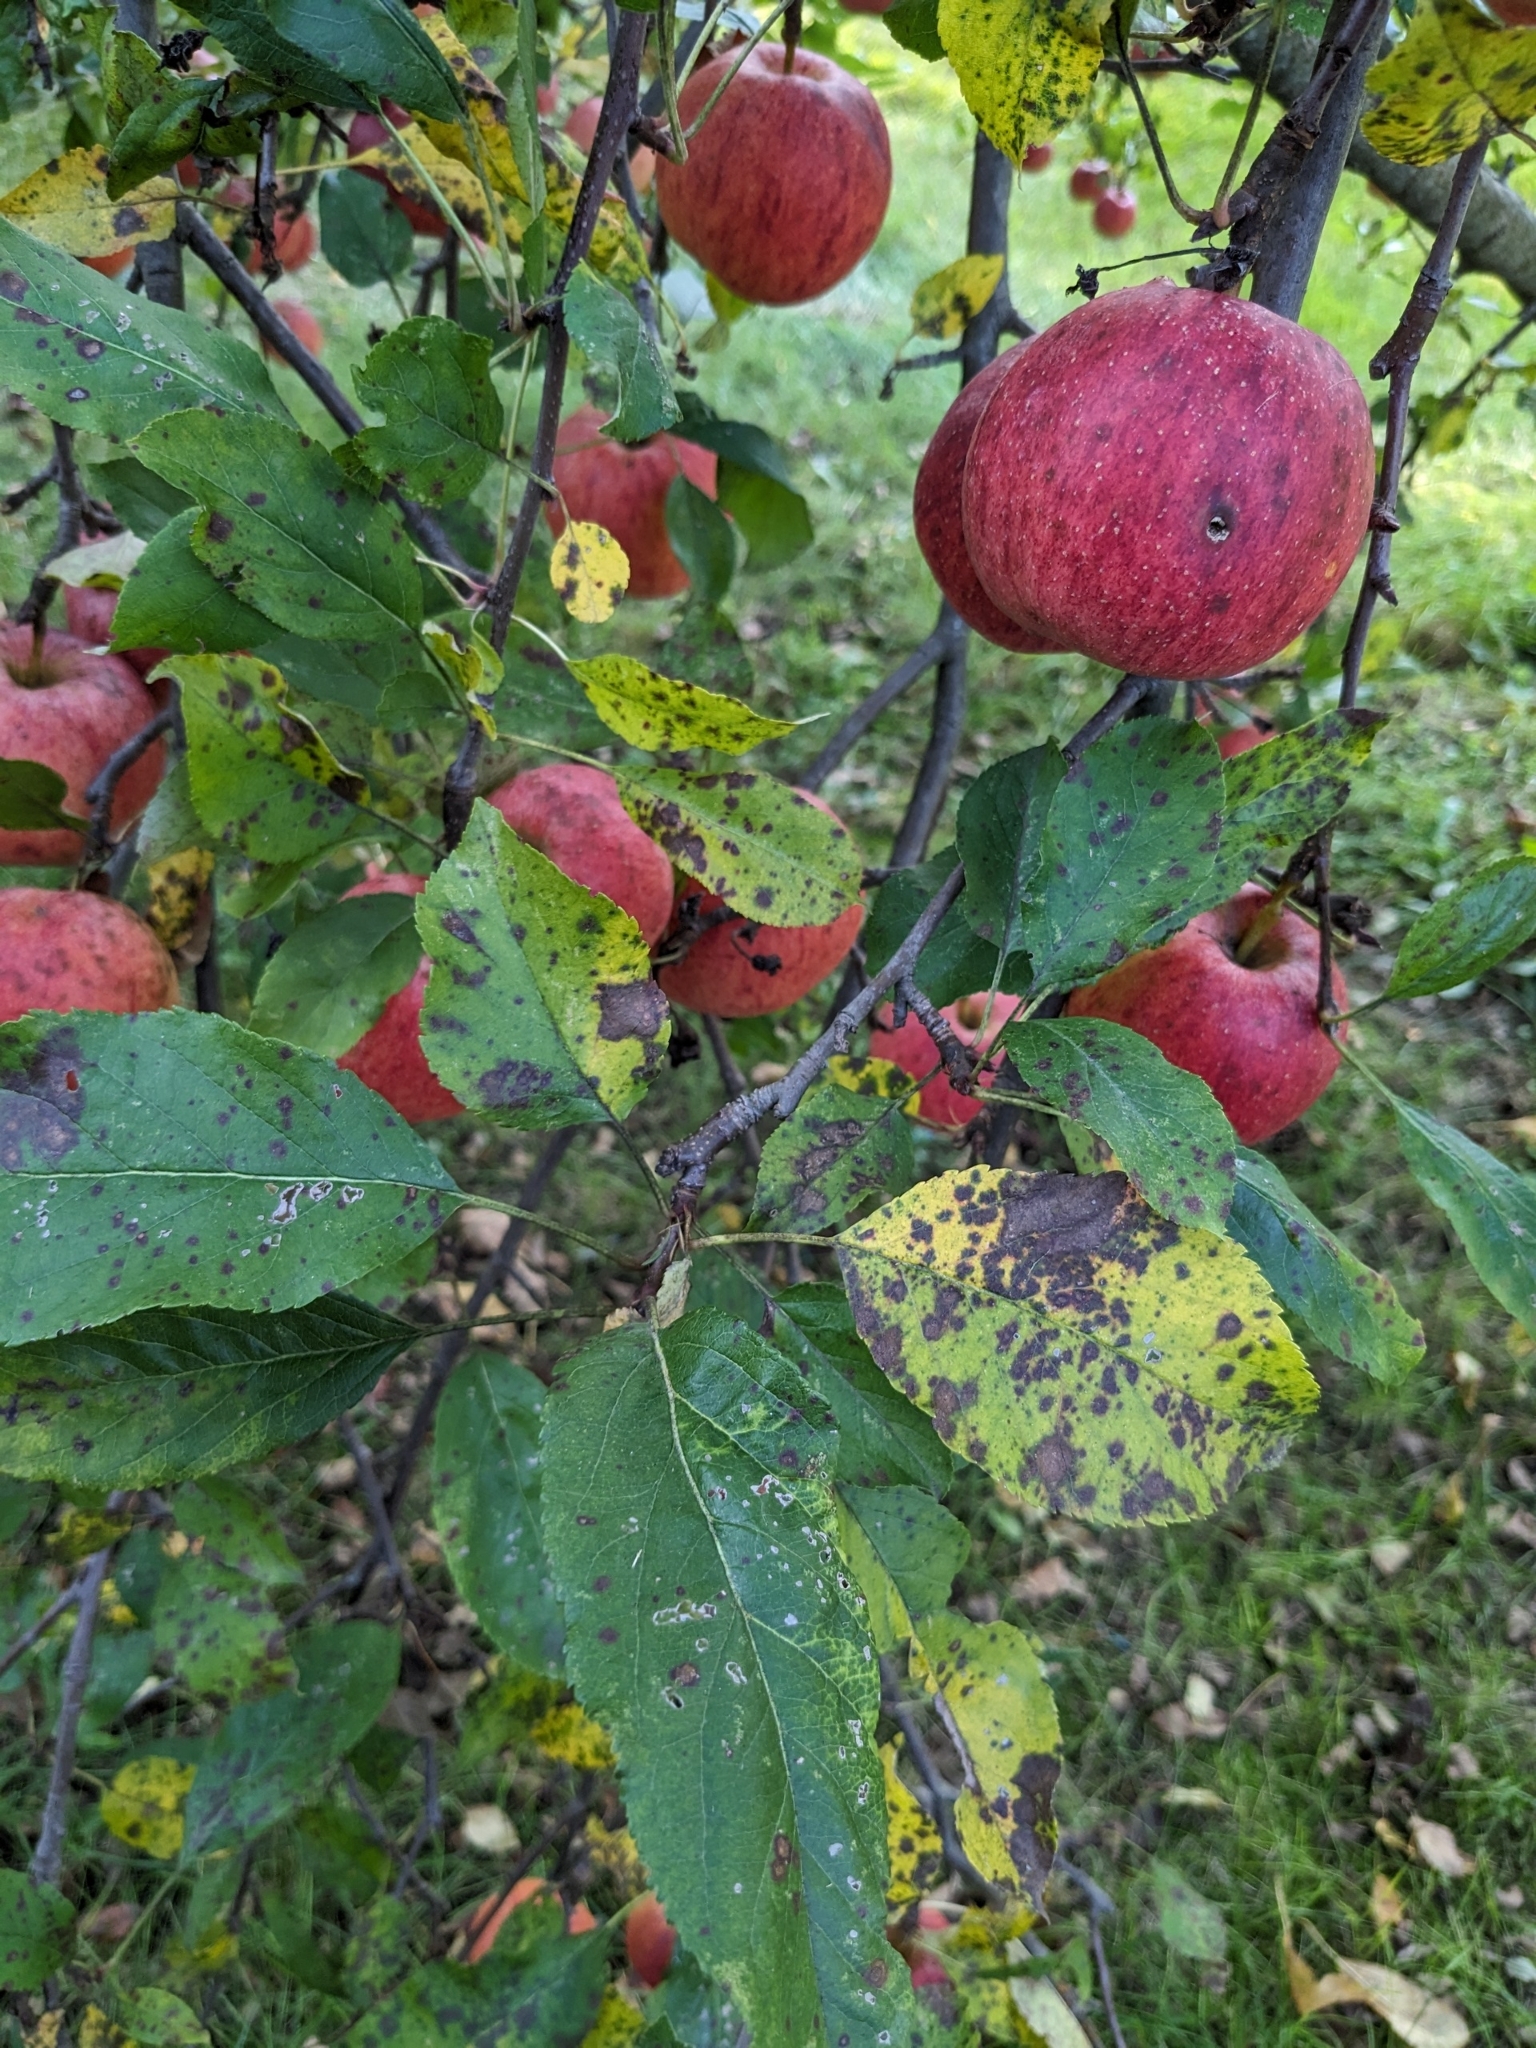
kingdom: Plantae
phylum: Tracheophyta
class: Magnoliopsida
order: Rosales
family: Rosaceae
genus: Malus
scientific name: Malus domestica
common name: Apple
